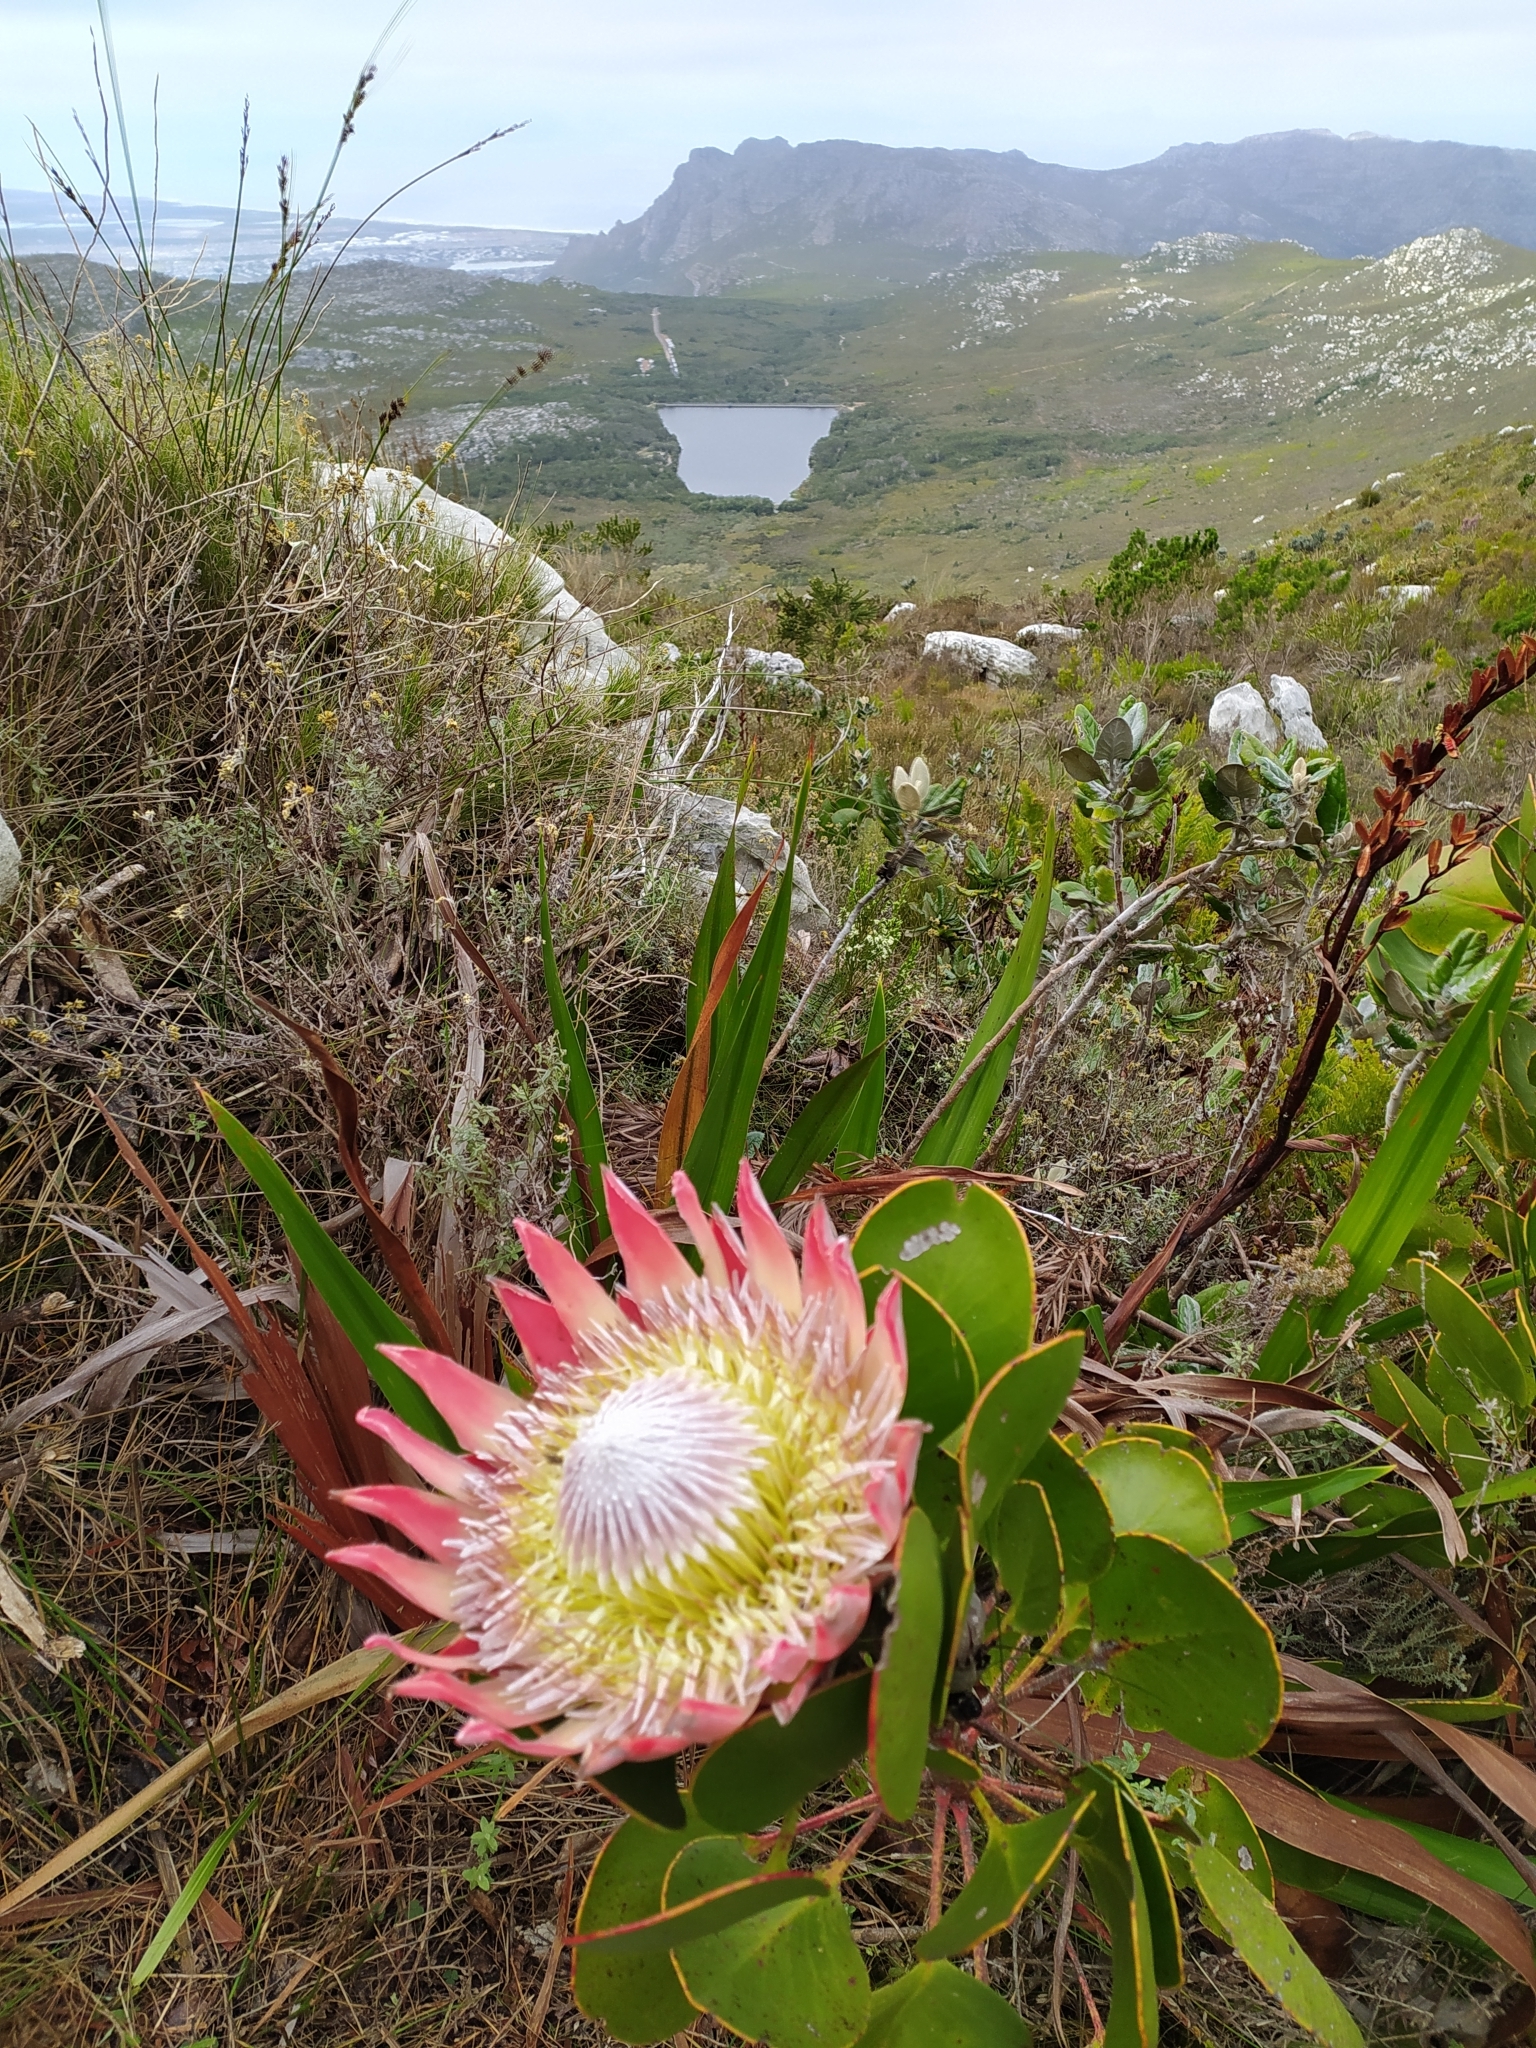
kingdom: Plantae
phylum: Tracheophyta
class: Magnoliopsida
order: Proteales
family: Proteaceae
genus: Protea
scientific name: Protea cynaroides
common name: King protea
